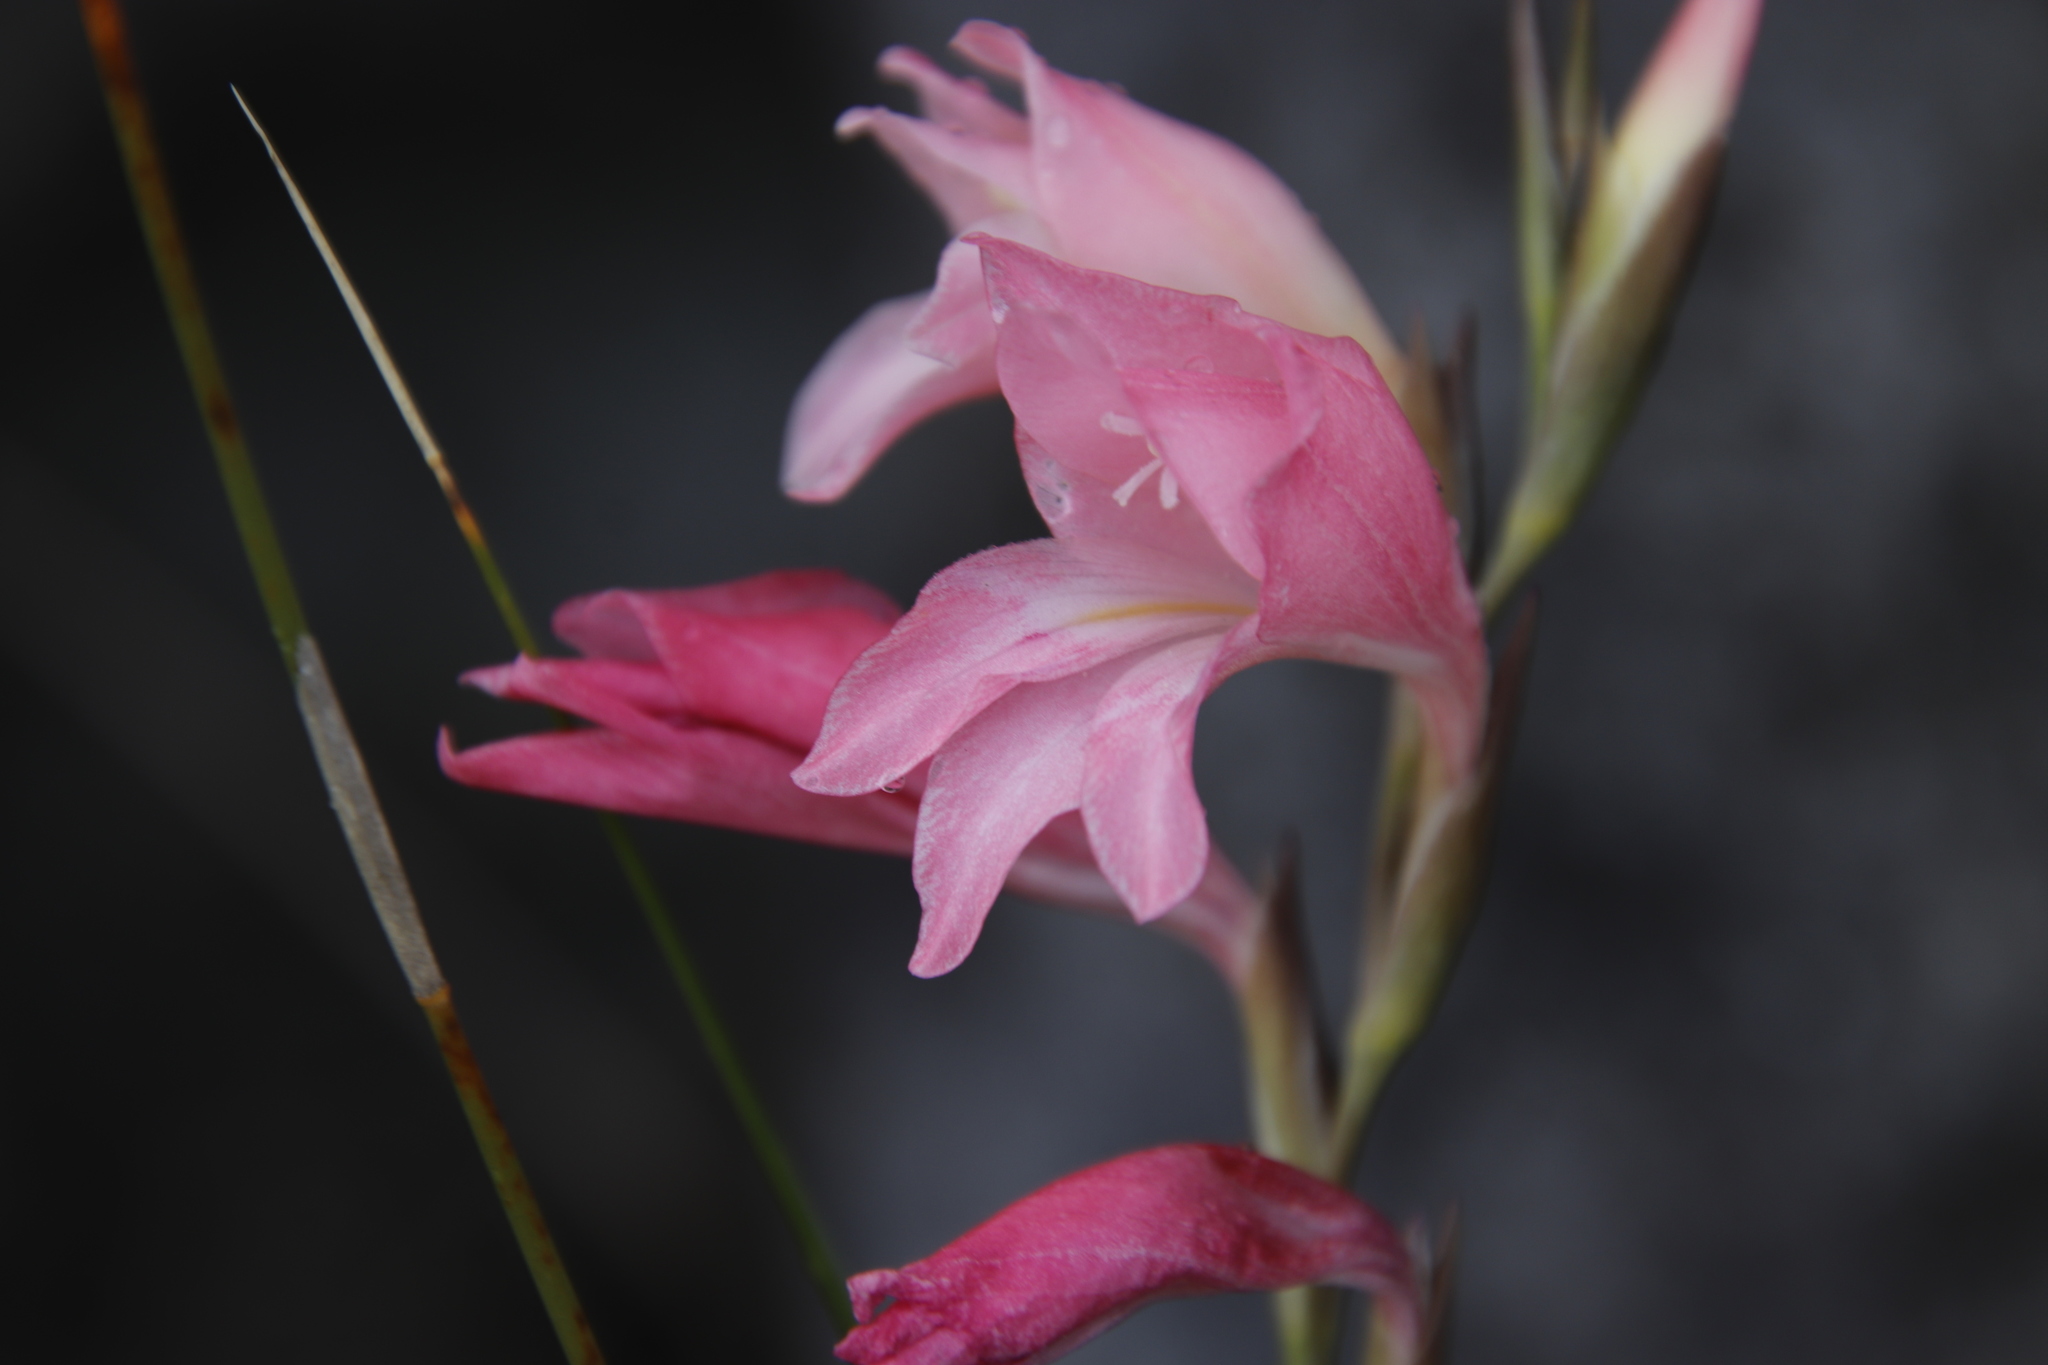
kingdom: Plantae
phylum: Tracheophyta
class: Liliopsida
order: Asparagales
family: Iridaceae
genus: Gladiolus
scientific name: Gladiolus brevifolius
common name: March pypie
